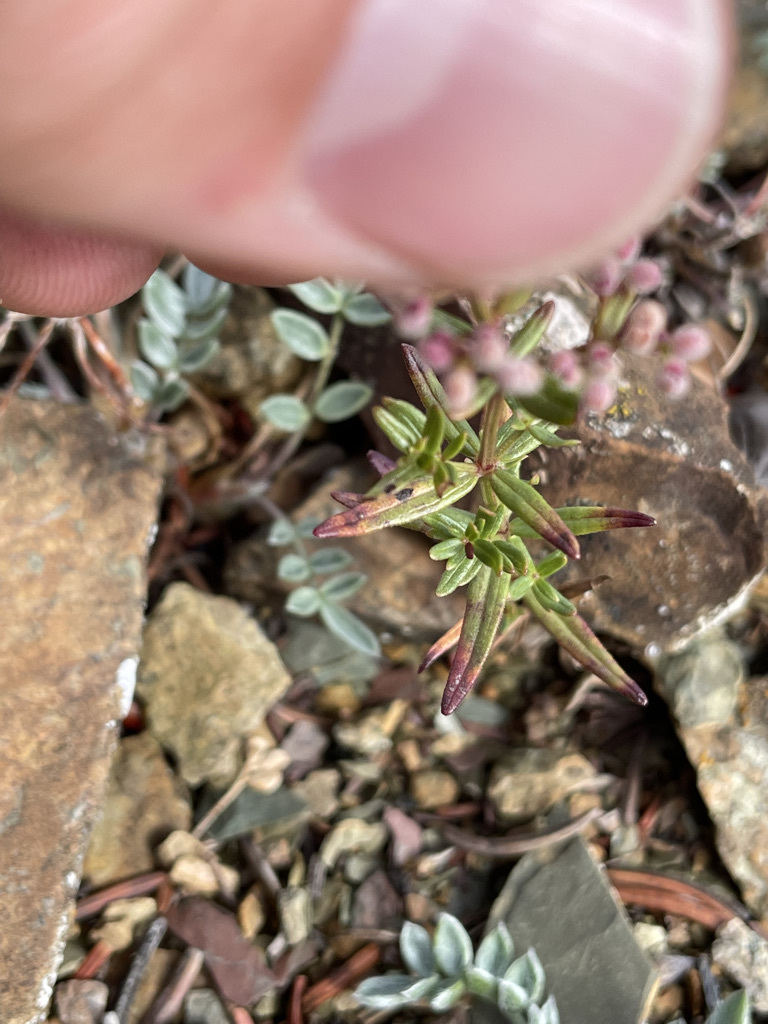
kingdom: Plantae
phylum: Tracheophyta
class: Magnoliopsida
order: Gentianales
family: Rubiaceae
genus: Galium
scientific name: Galium boreale
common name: Northern bedstraw
